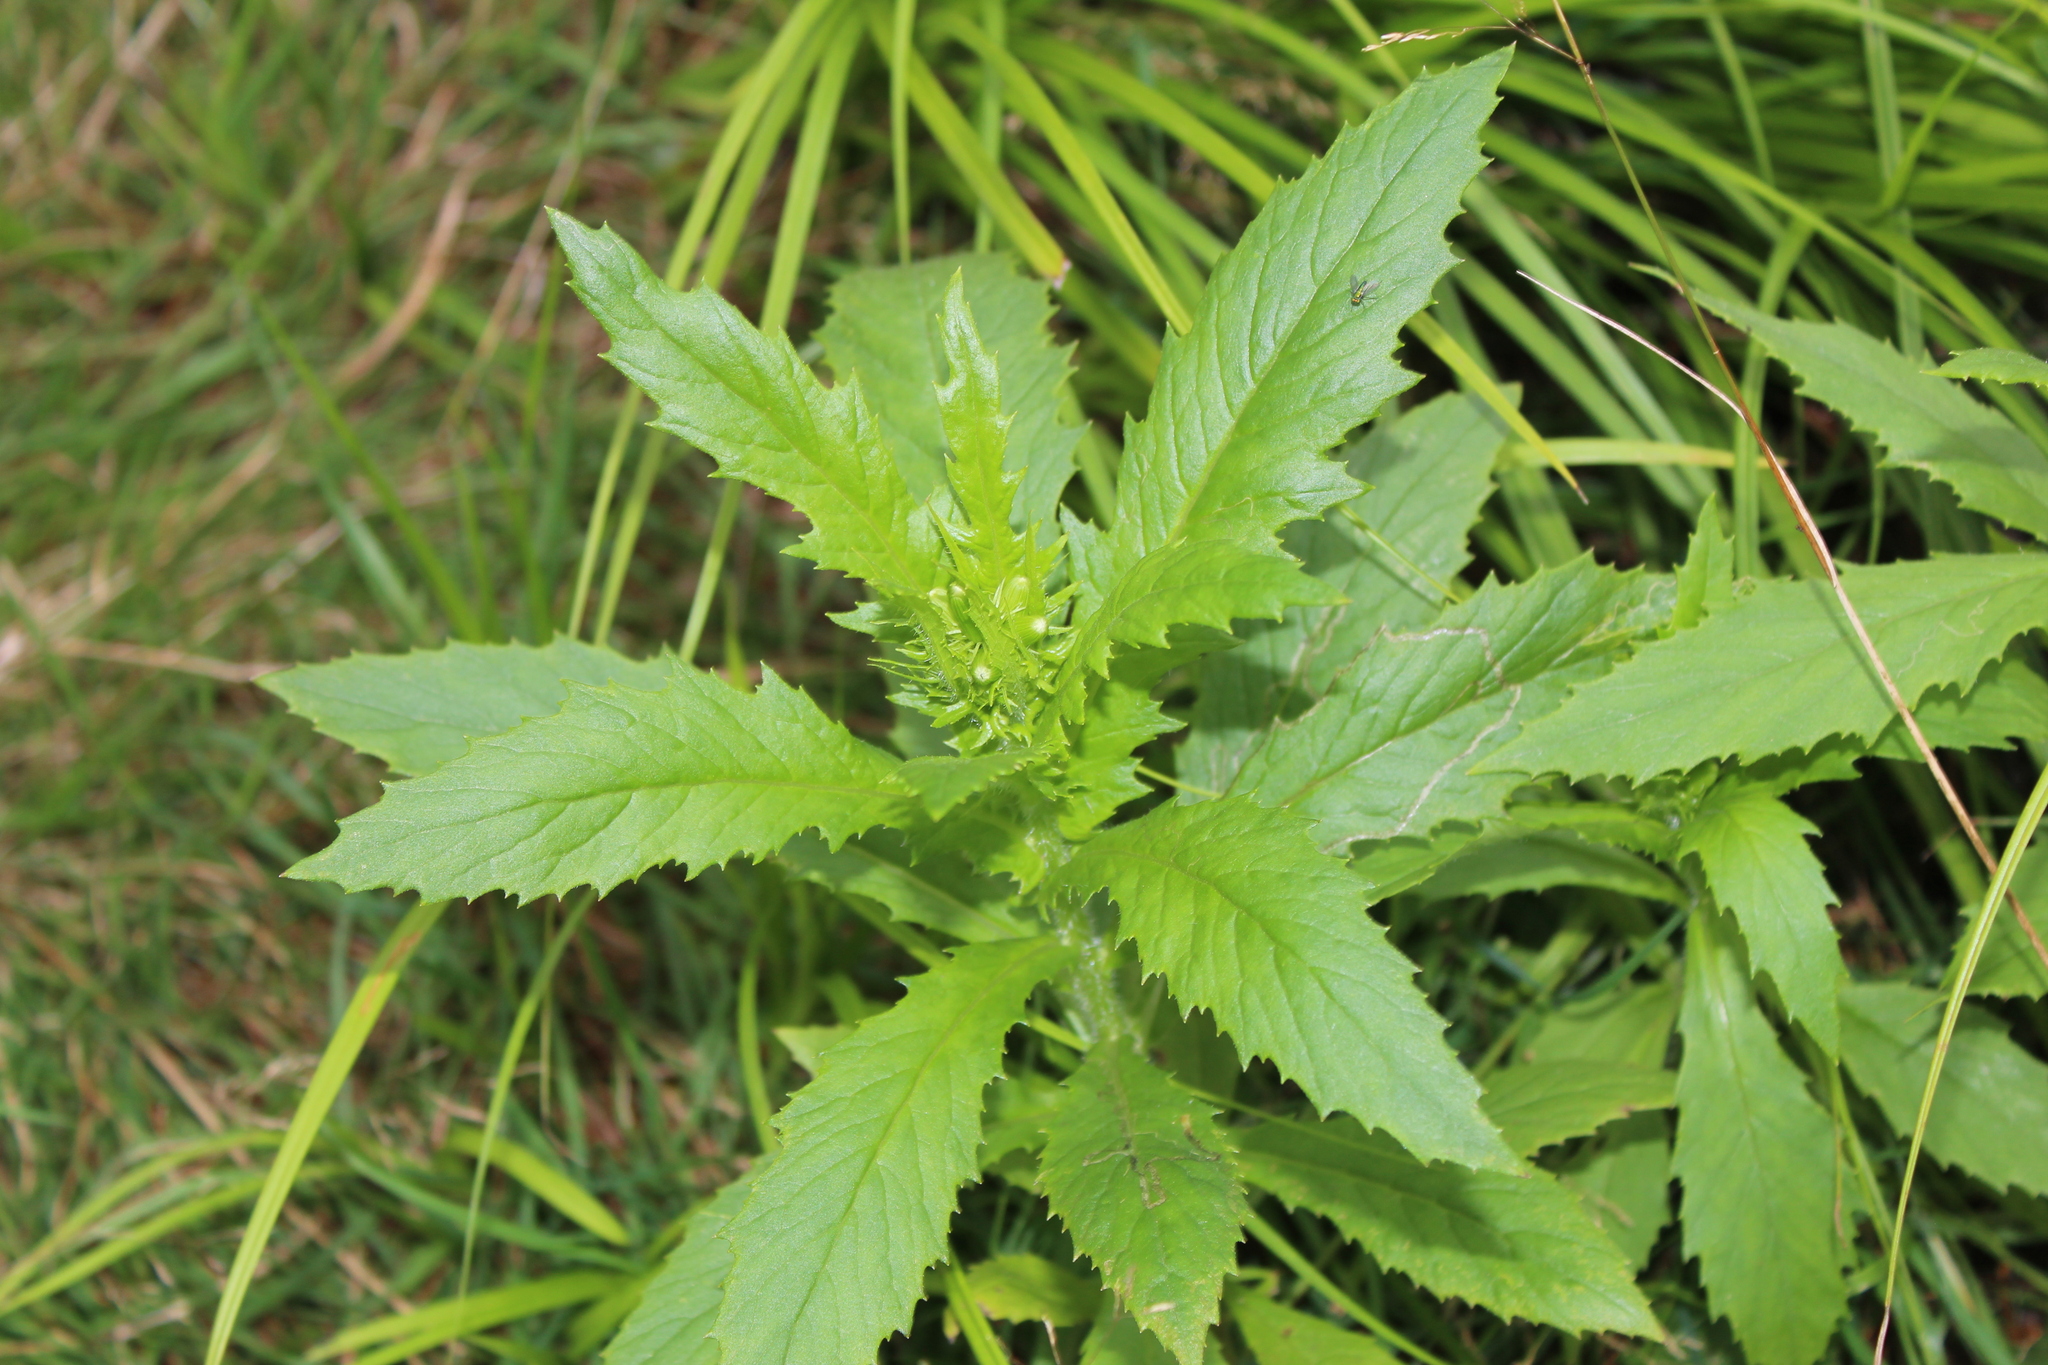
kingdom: Plantae
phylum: Tracheophyta
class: Magnoliopsida
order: Asterales
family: Asteraceae
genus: Erechtites
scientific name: Erechtites hieraciifolius
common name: American burnweed
